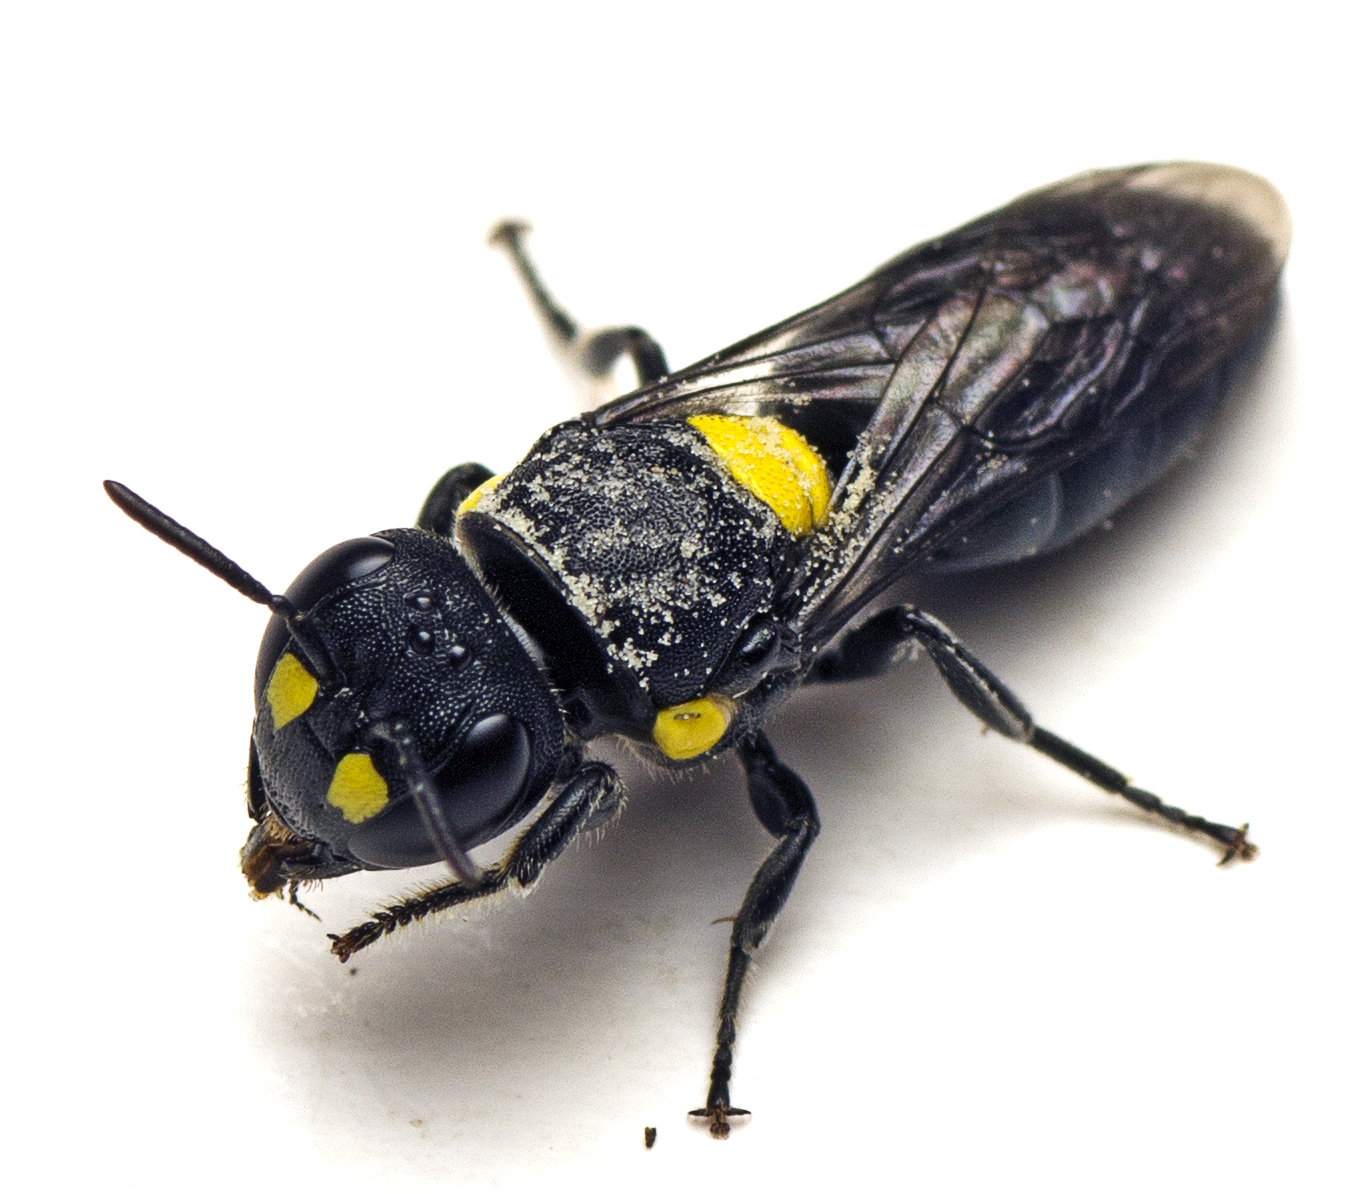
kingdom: Animalia
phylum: Arthropoda
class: Insecta
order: Hymenoptera
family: Colletidae
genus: Hylaeus
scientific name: Hylaeus rotundiceps
